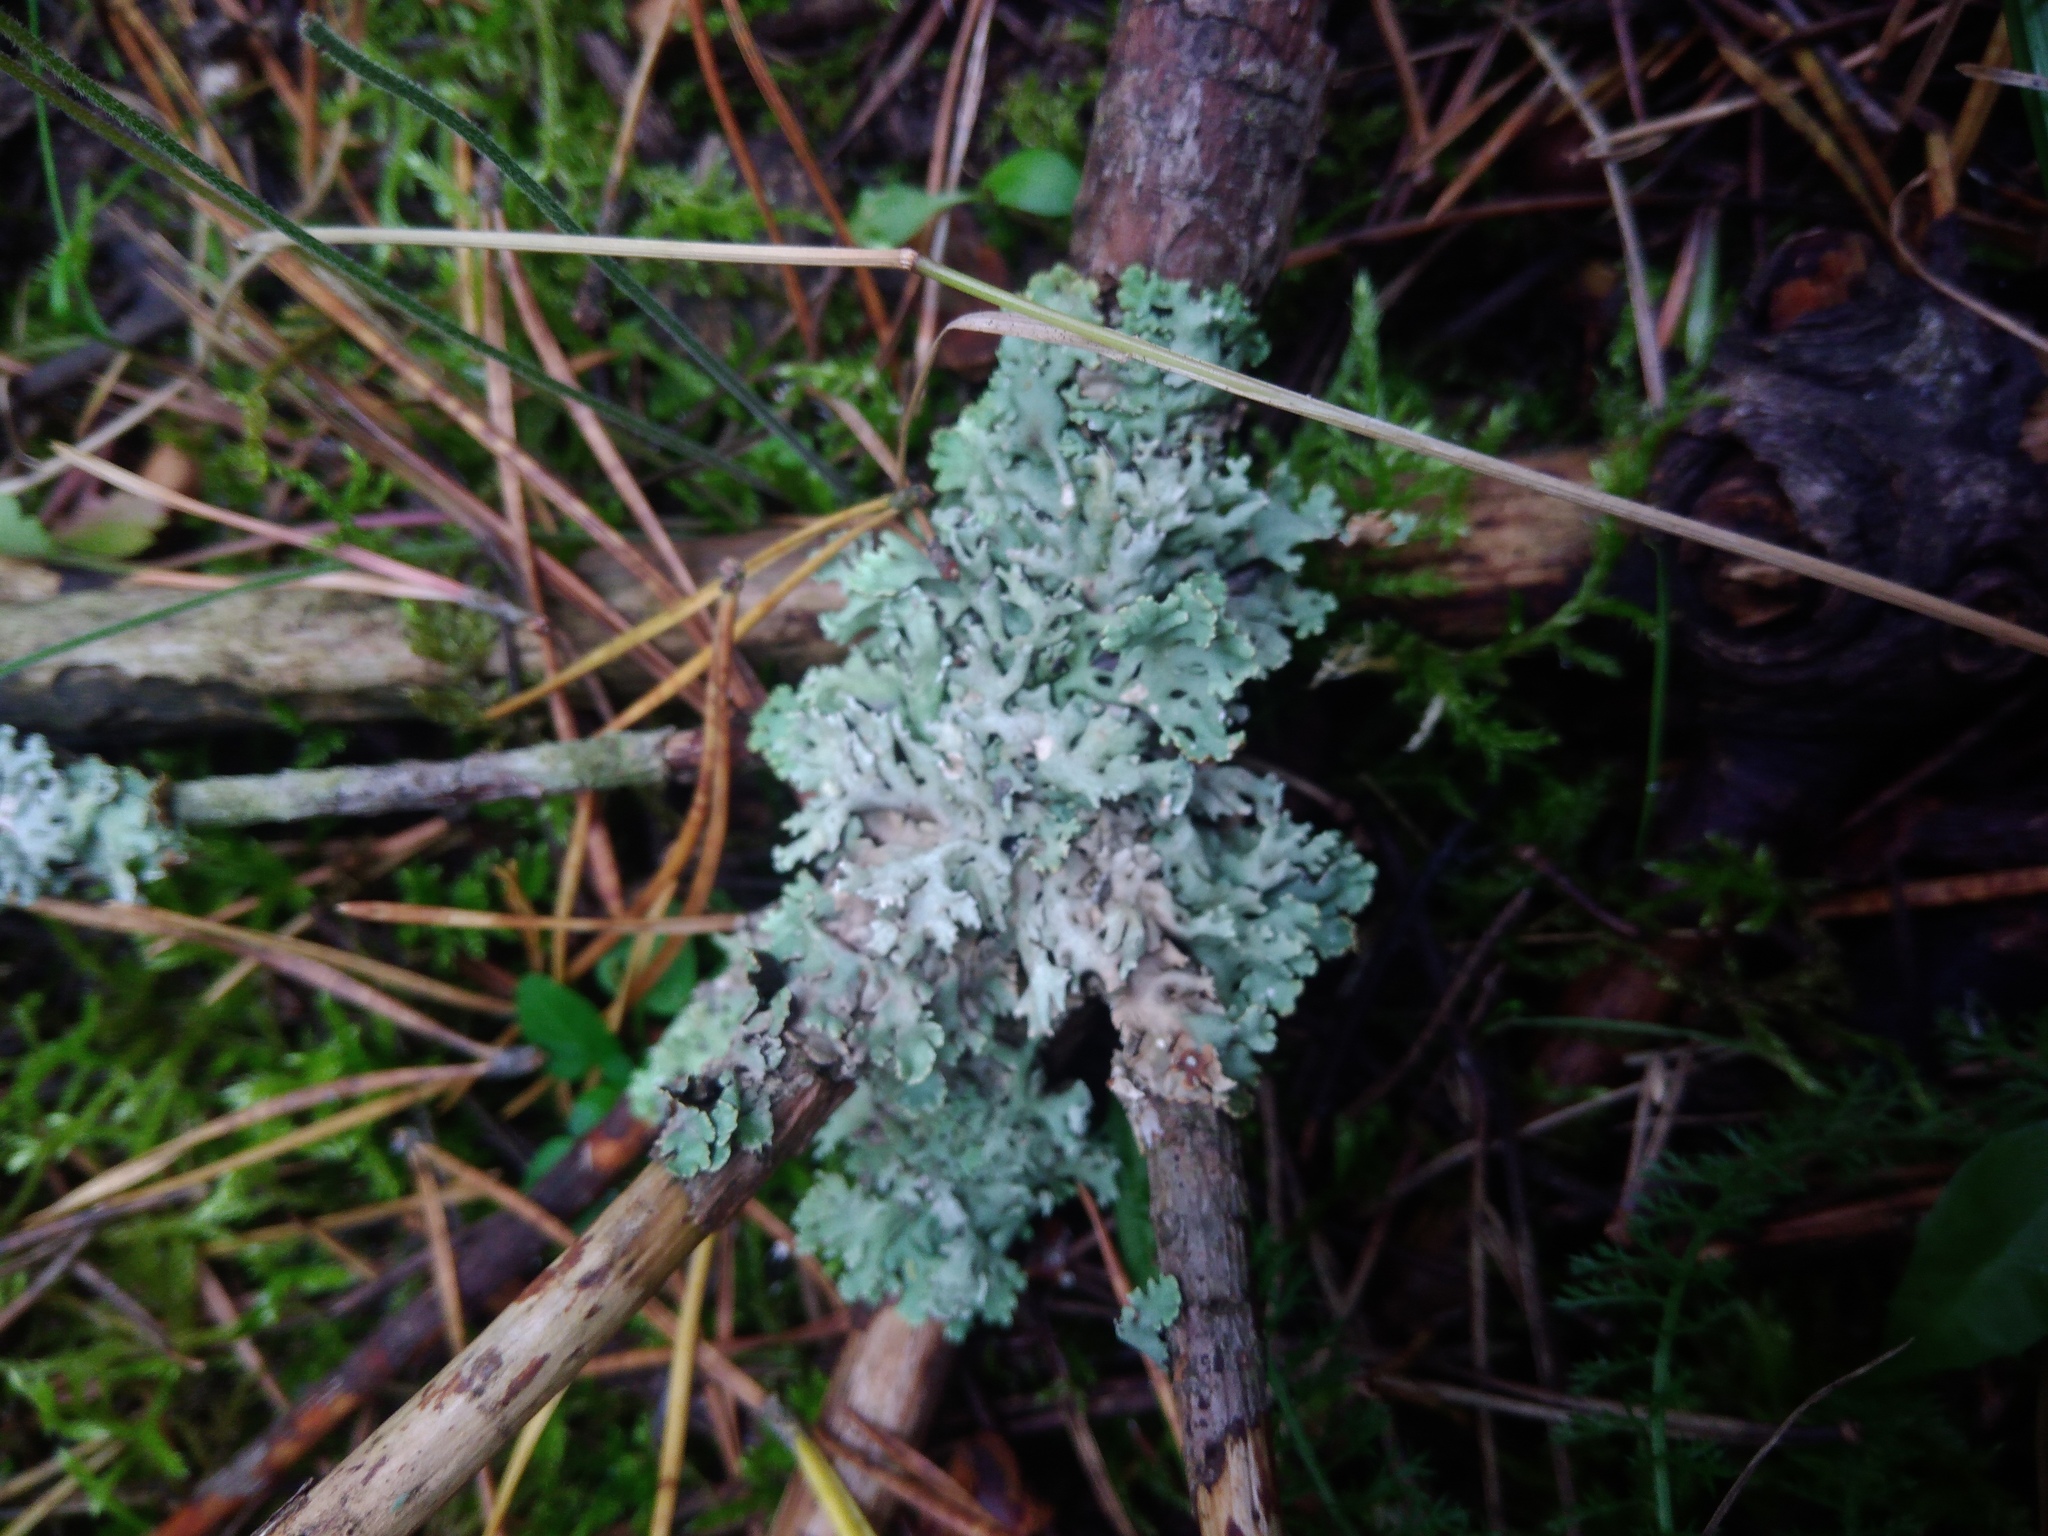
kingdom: Fungi
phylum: Ascomycota
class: Lecanoromycetes
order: Lecanorales
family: Parmeliaceae
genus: Hypogymnia
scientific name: Hypogymnia physodes
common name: Dark crottle
